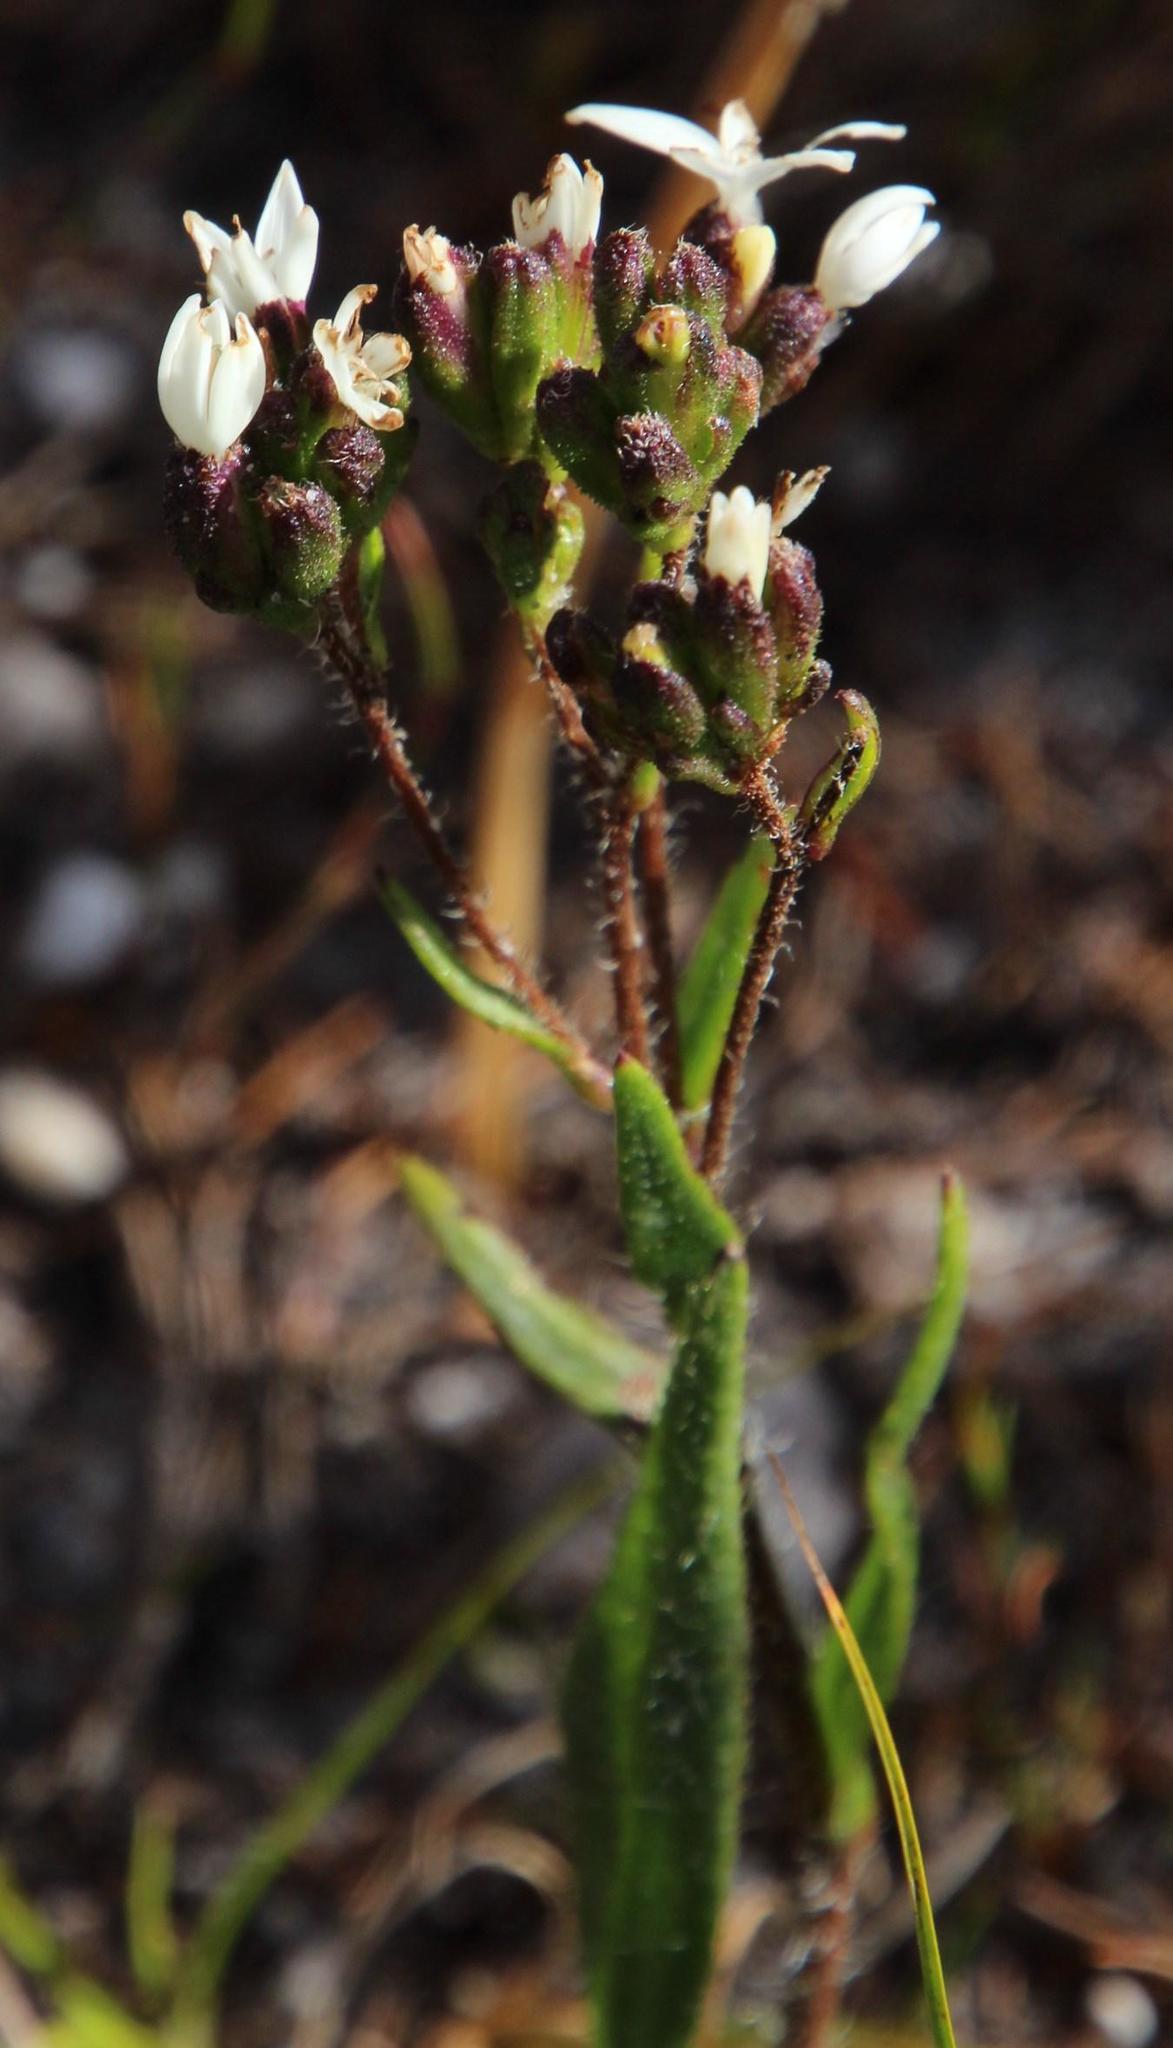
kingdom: Plantae
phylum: Tracheophyta
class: Magnoliopsida
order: Asterales
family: Asteraceae
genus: Corymbium
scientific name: Corymbium villosum
